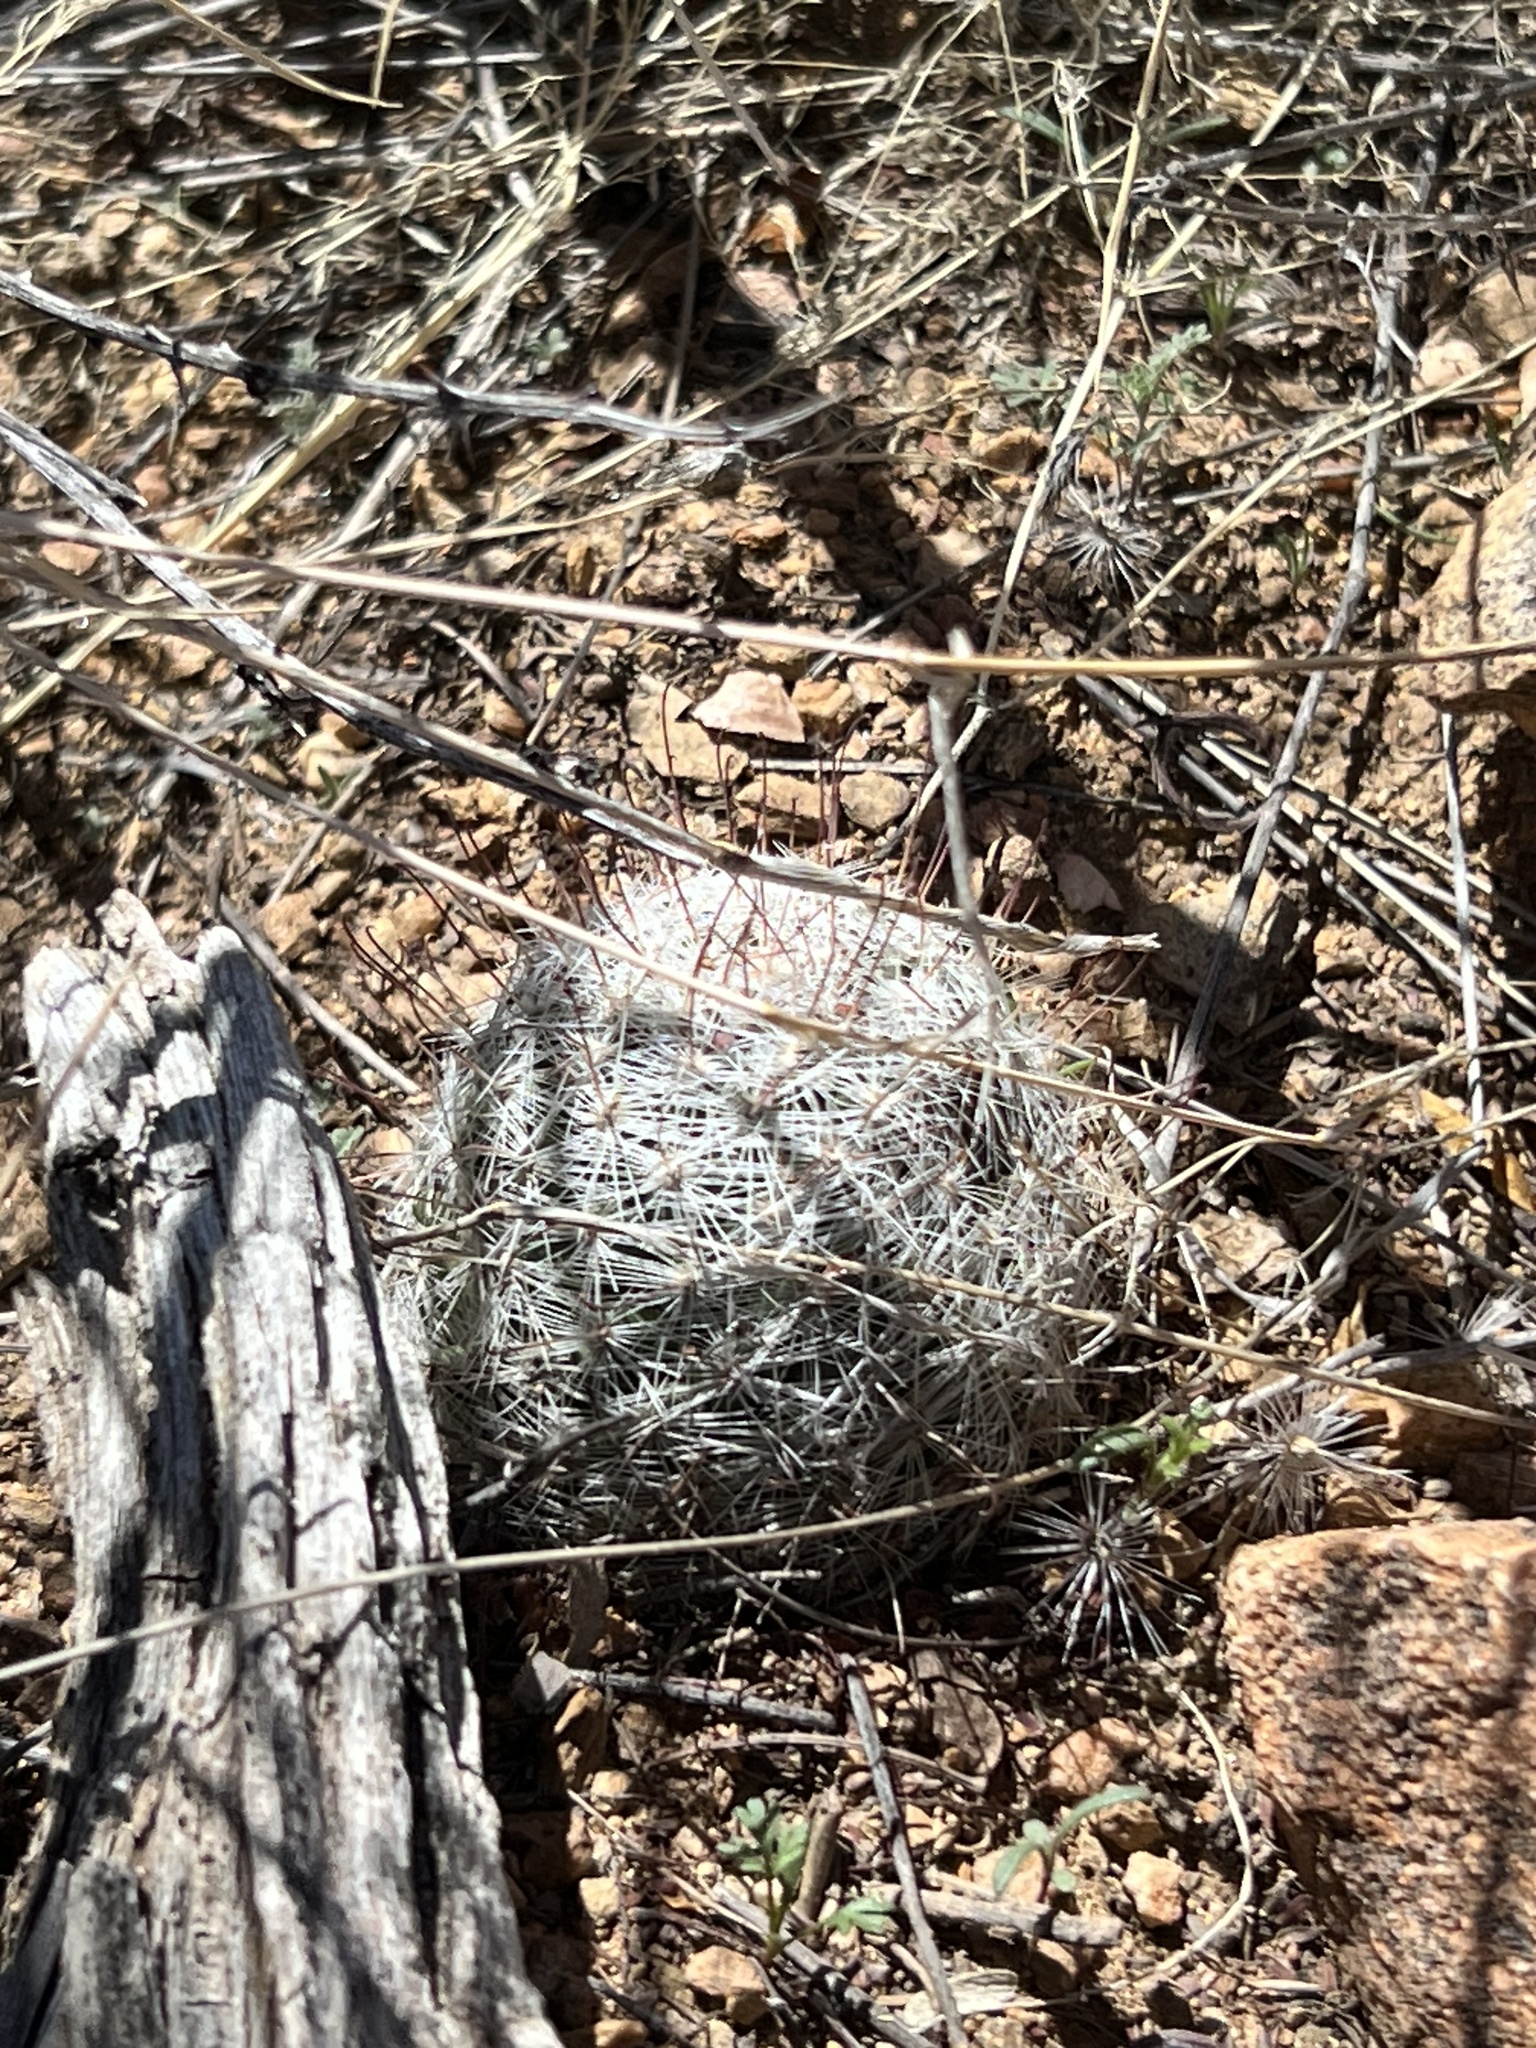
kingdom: Plantae
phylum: Tracheophyta
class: Magnoliopsida
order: Caryophyllales
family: Cactaceae
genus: Cochemiea
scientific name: Cochemiea grahamii
